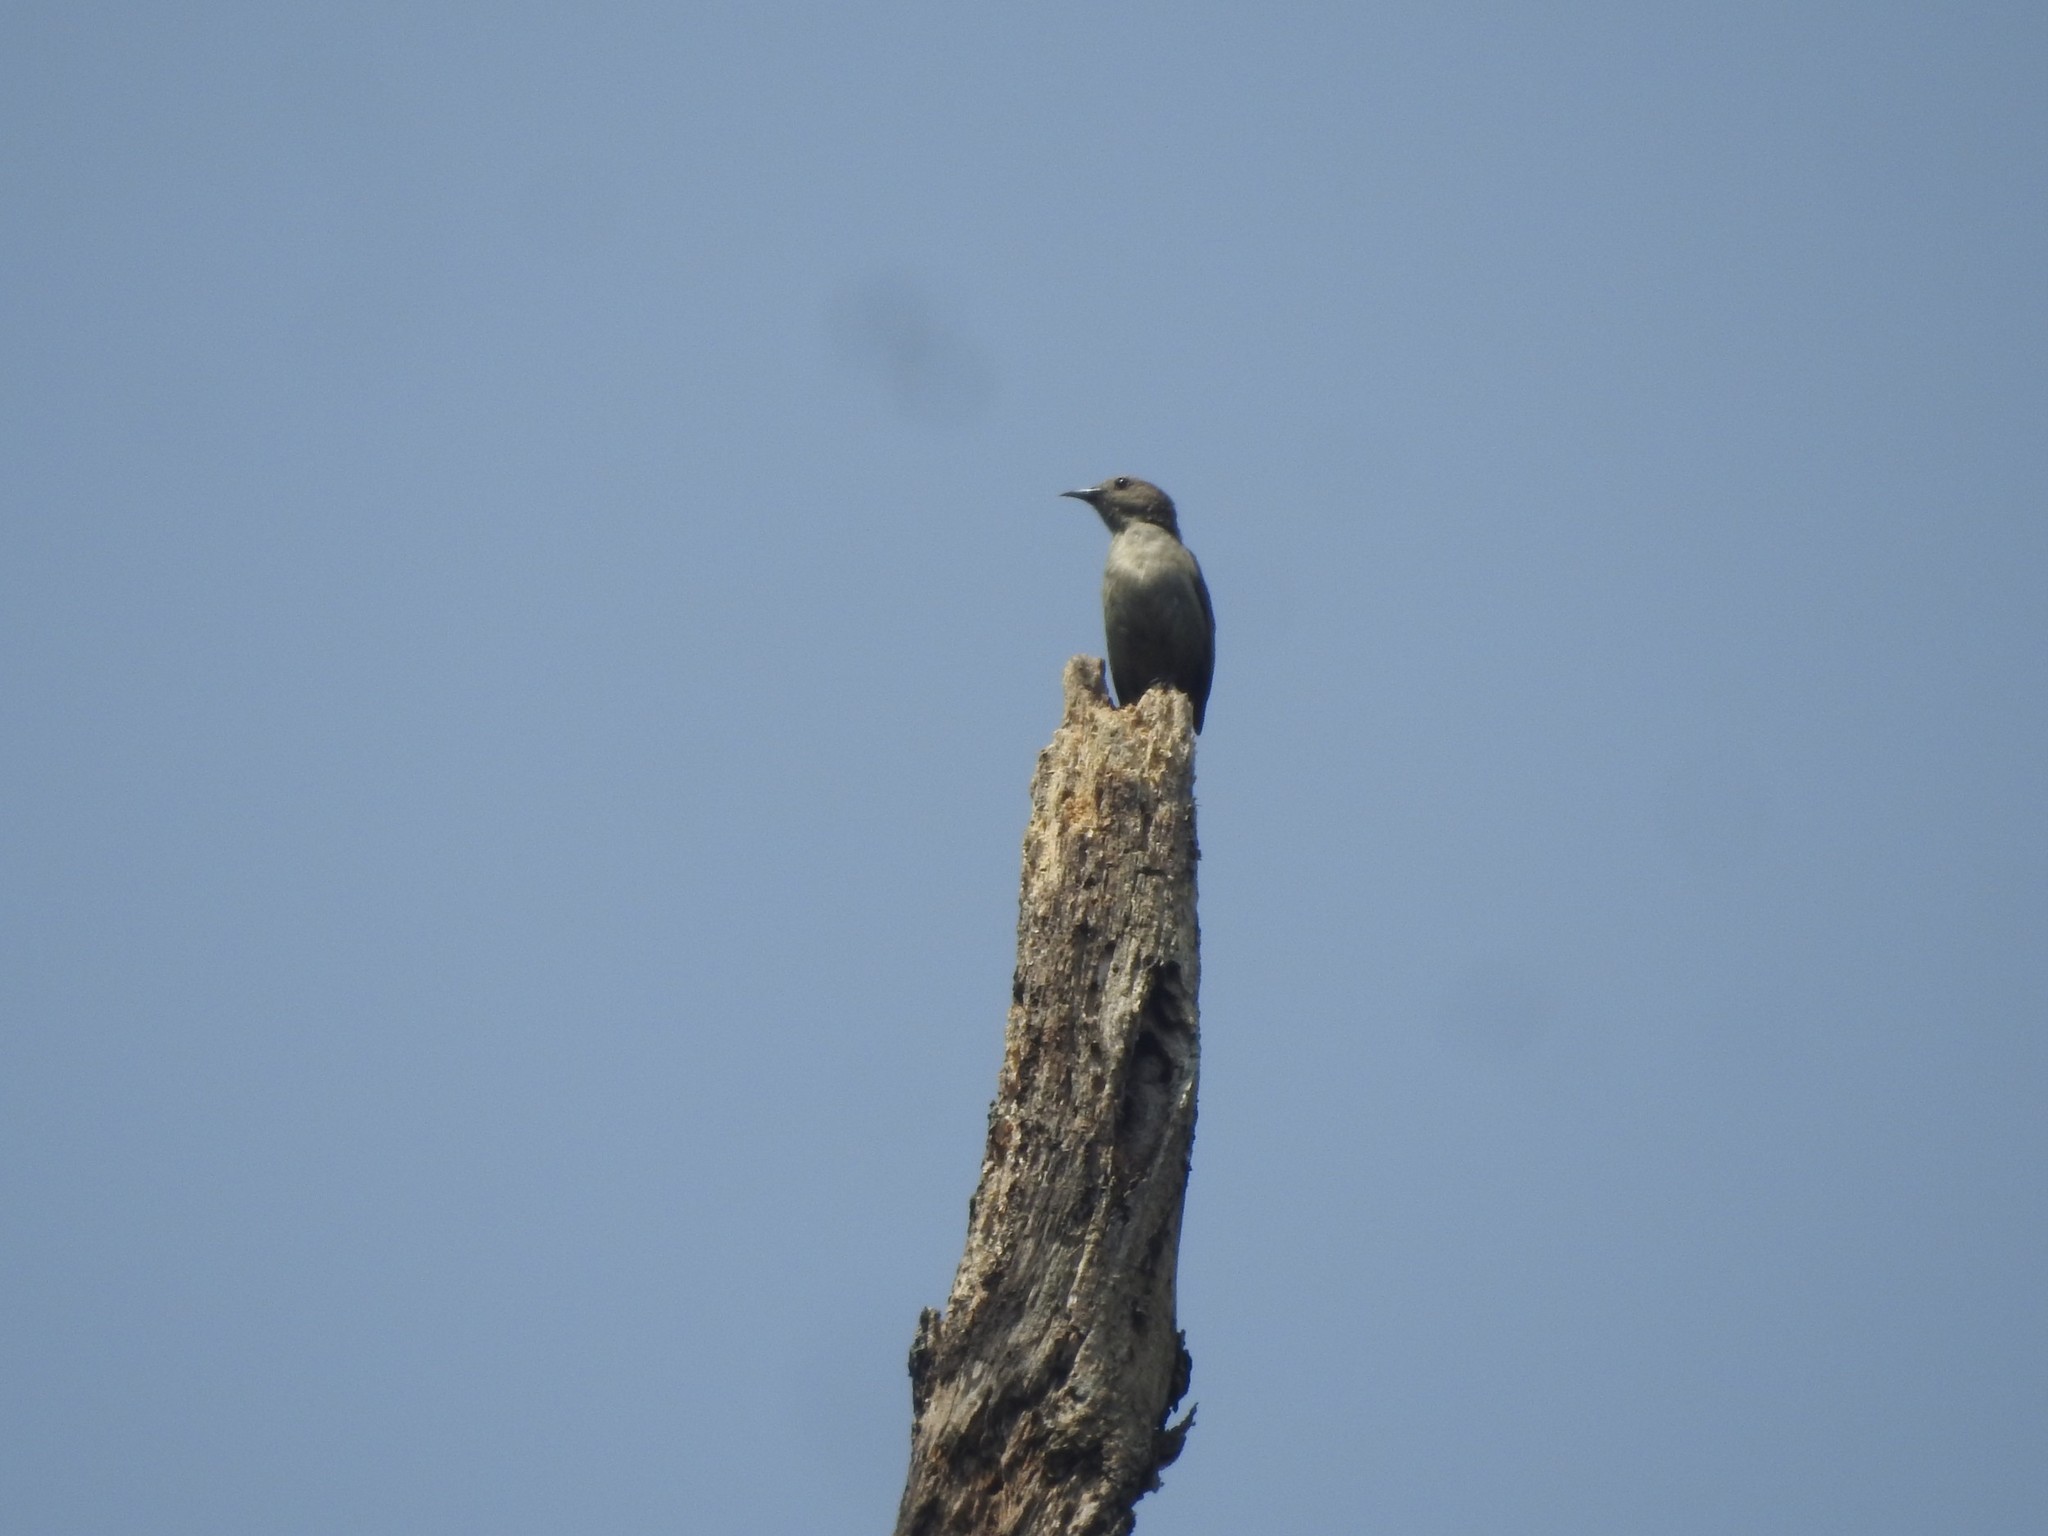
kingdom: Animalia
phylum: Chordata
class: Aves
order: Passeriformes
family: Dicaeidae
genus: Dicaeum
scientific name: Dicaeum concolor
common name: Nilgiri flowerpecker
